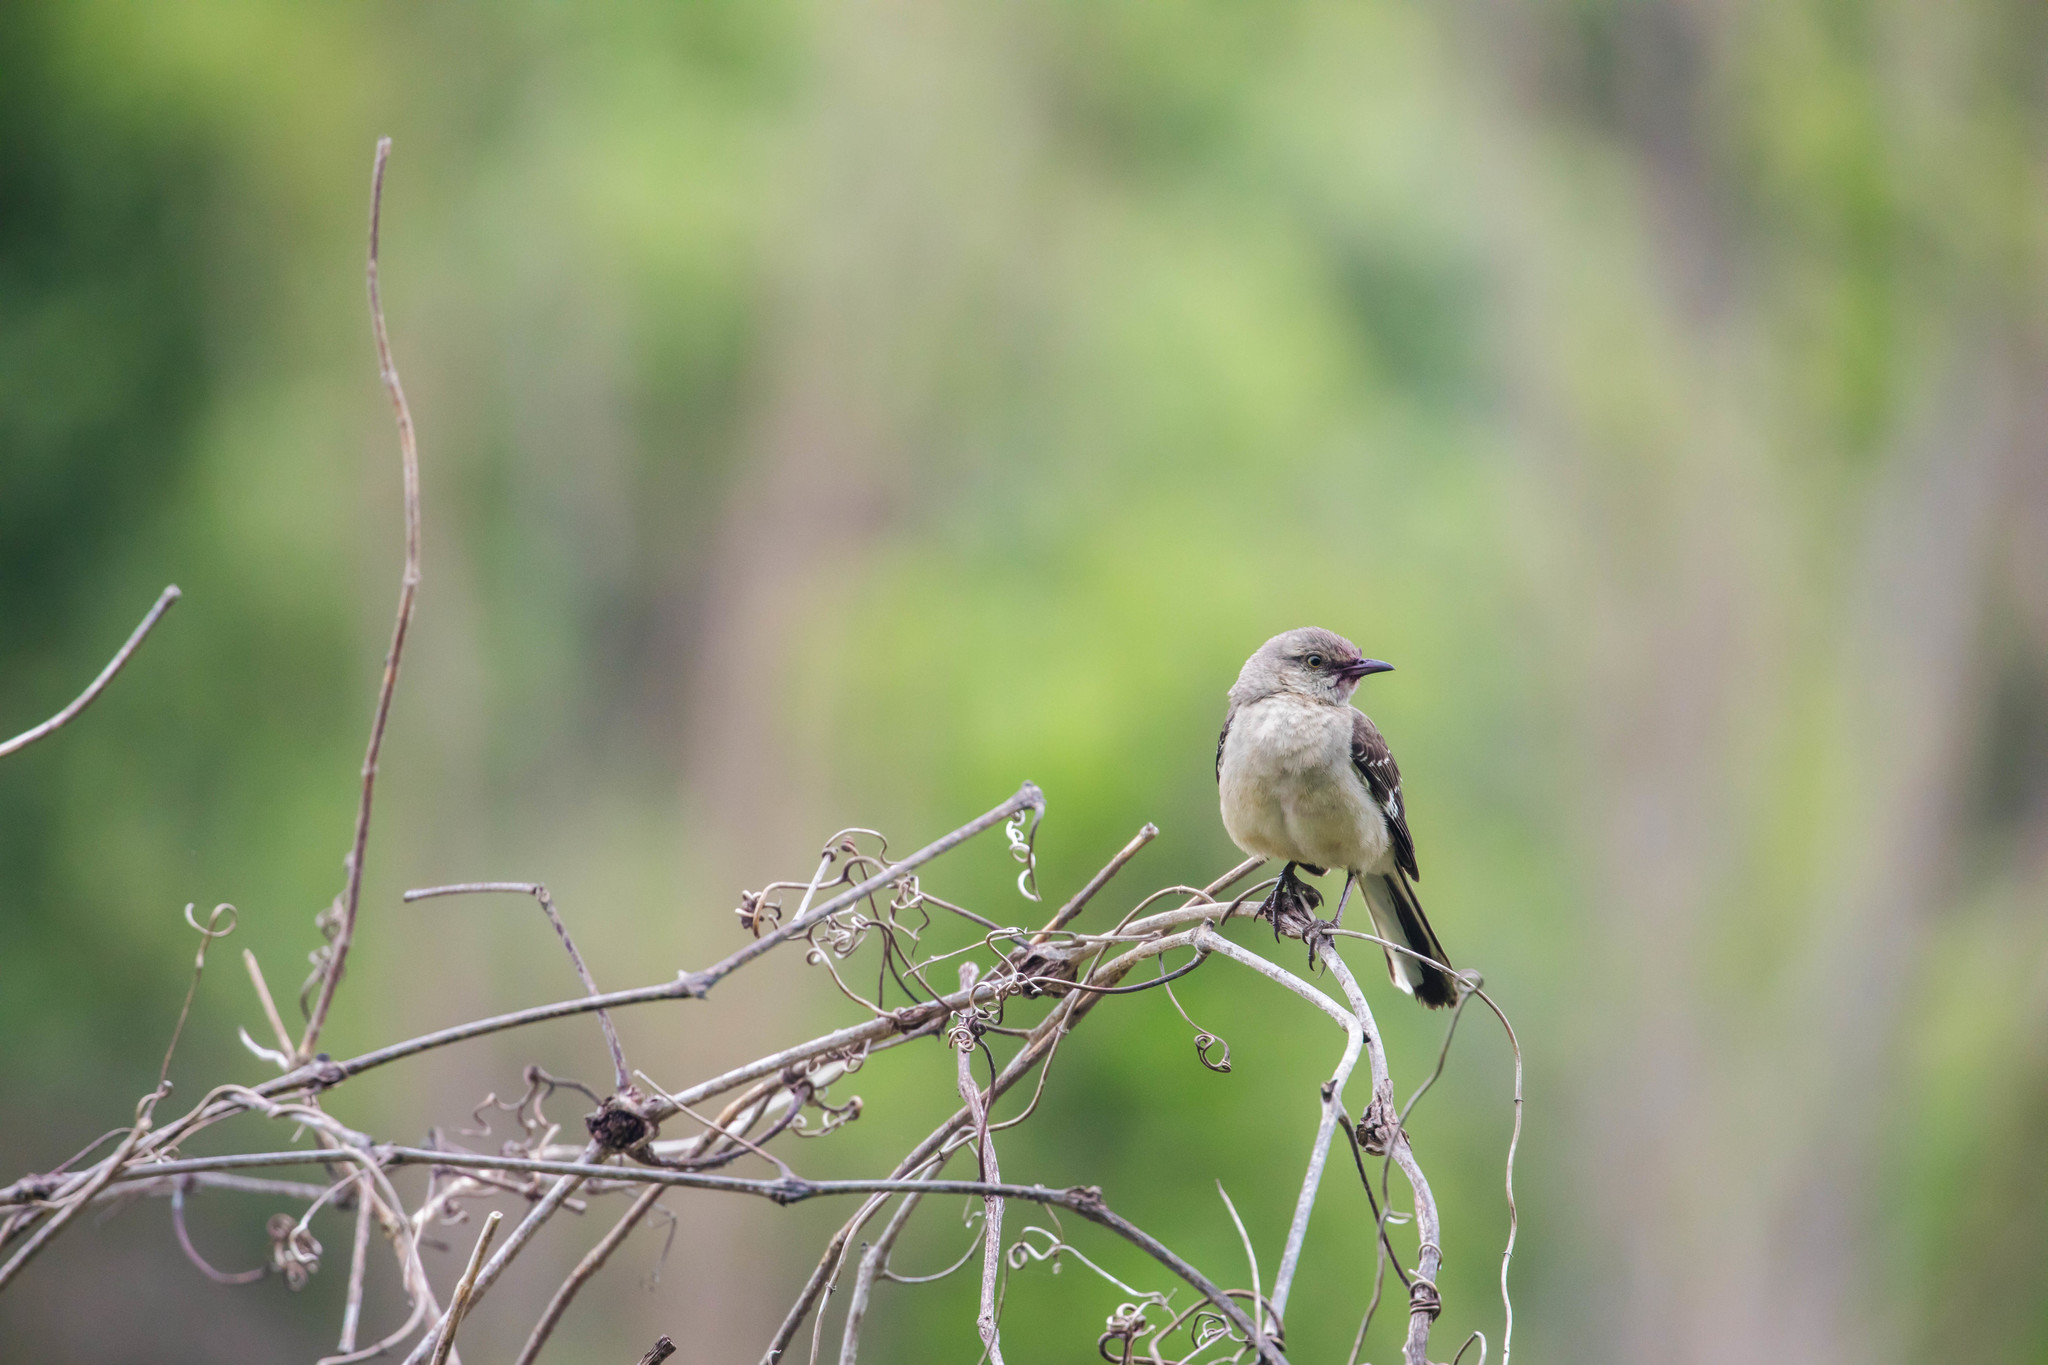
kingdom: Animalia
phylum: Chordata
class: Aves
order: Passeriformes
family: Mimidae
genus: Mimus
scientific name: Mimus polyglottos
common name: Northern mockingbird
